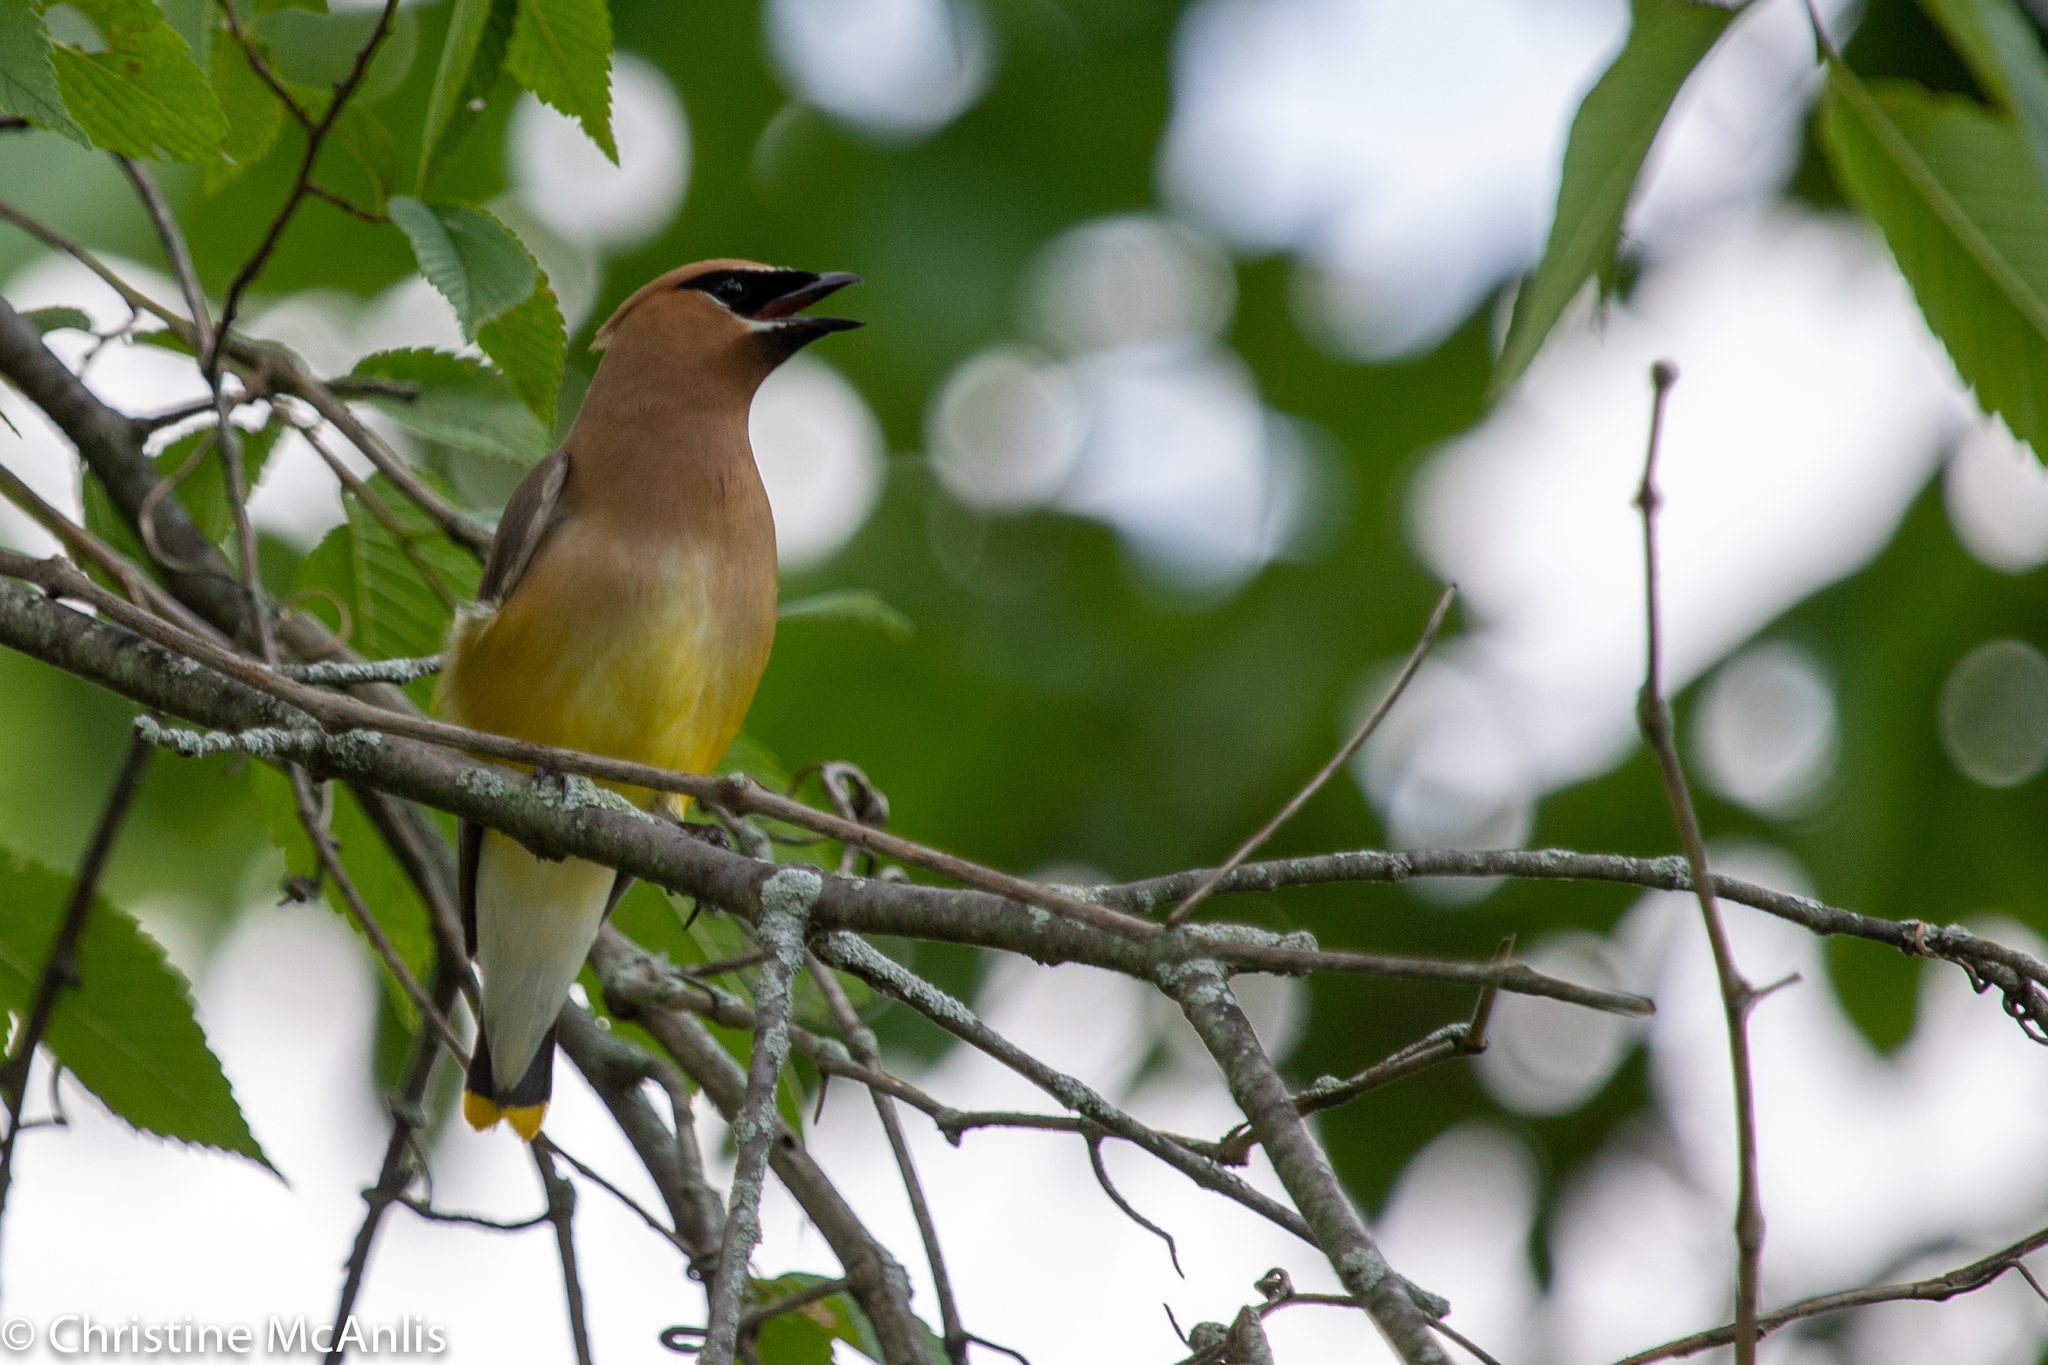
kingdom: Animalia
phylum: Chordata
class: Aves
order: Passeriformes
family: Bombycillidae
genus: Bombycilla
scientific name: Bombycilla cedrorum
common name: Cedar waxwing
